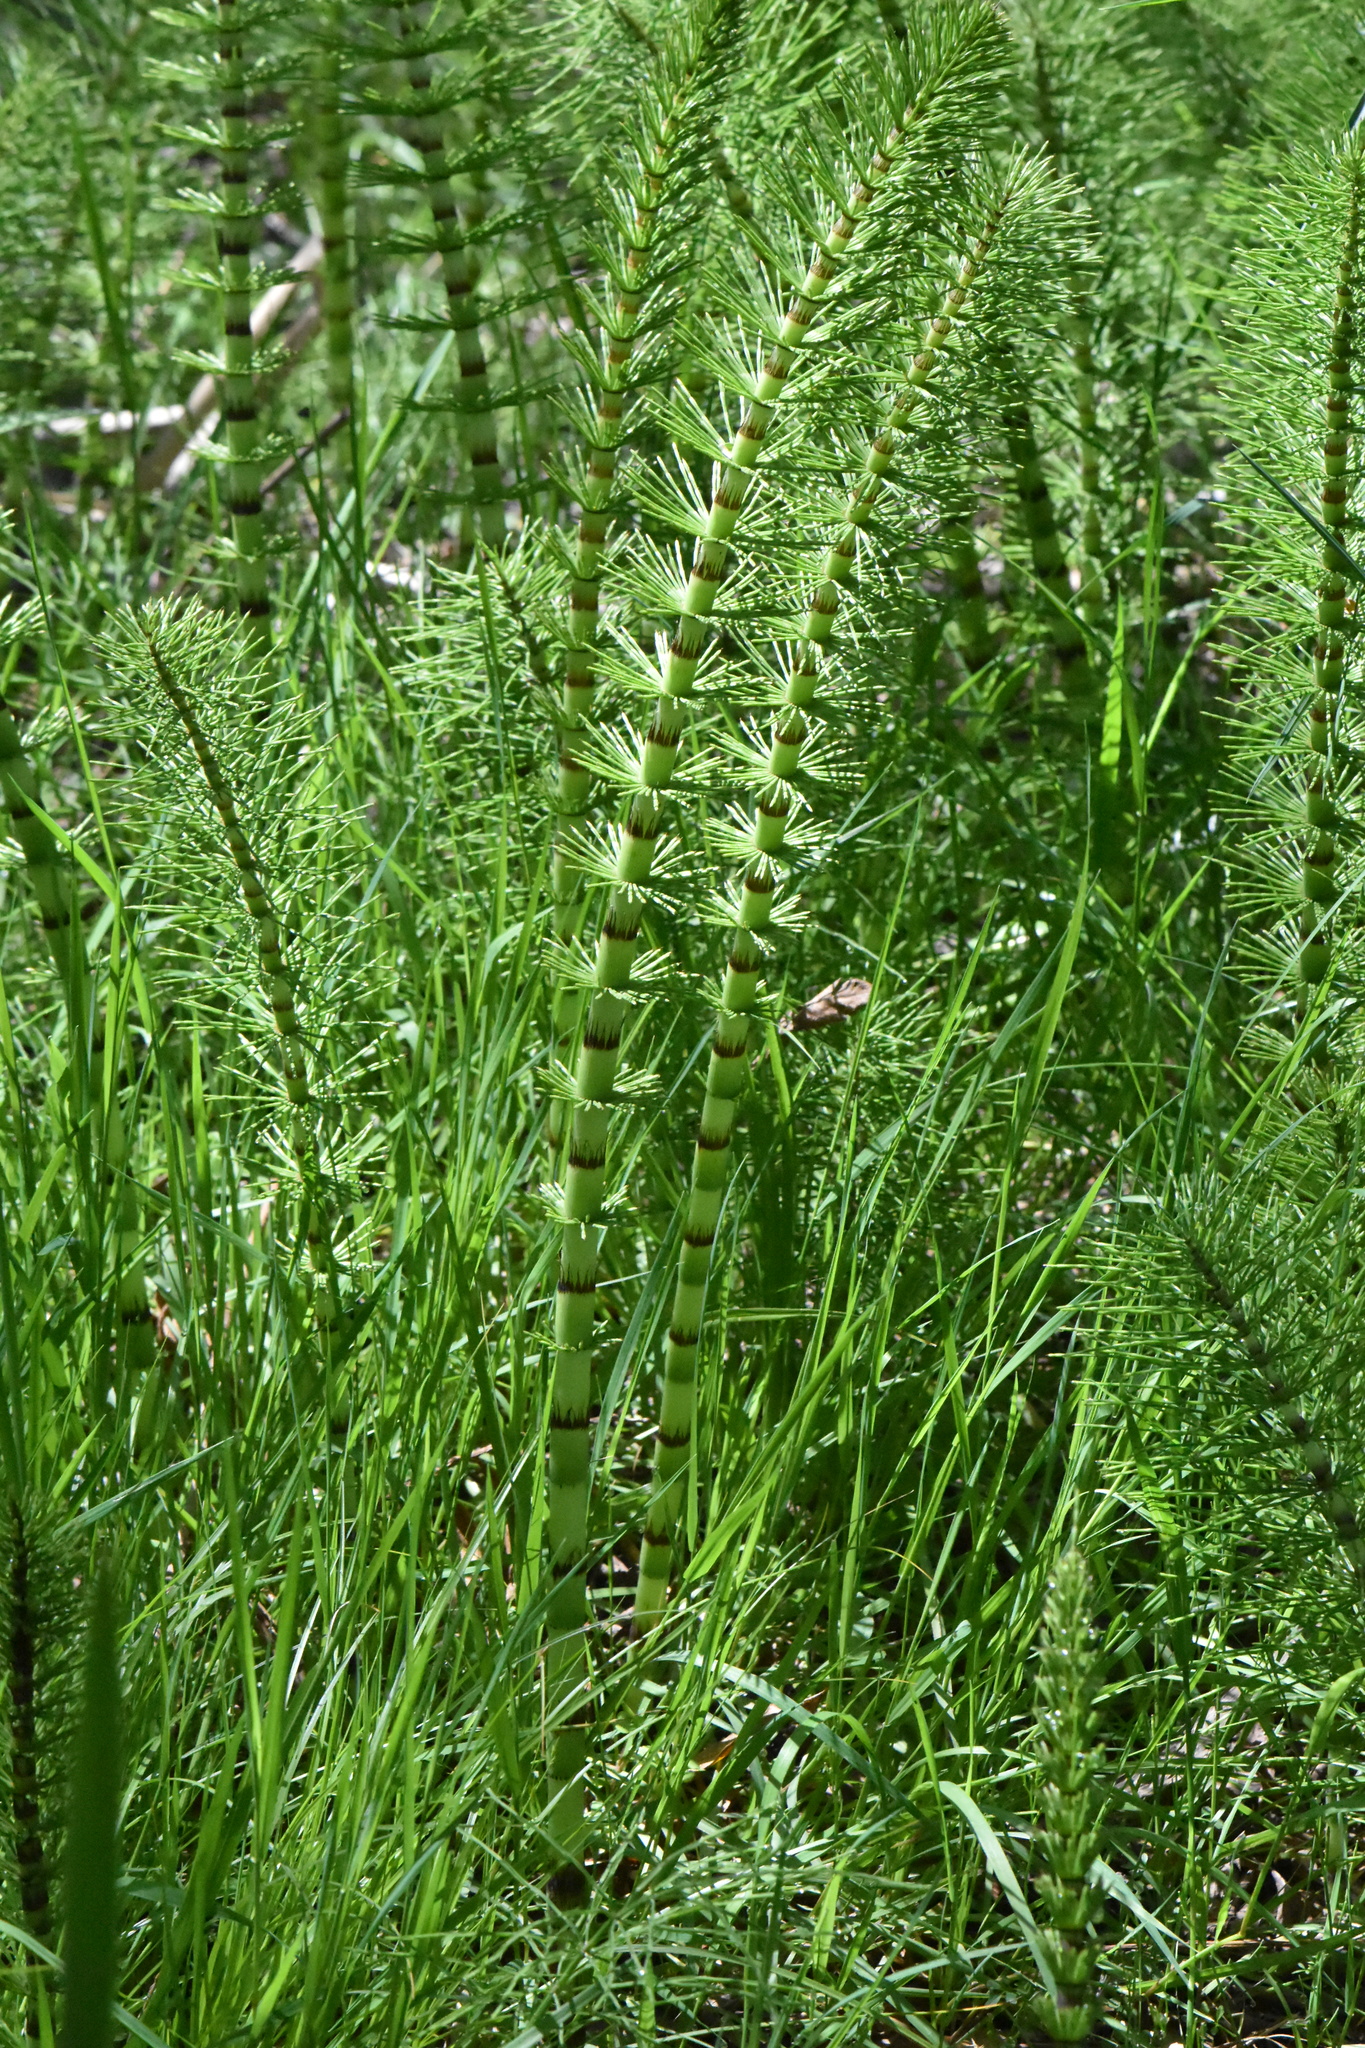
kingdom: Plantae
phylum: Tracheophyta
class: Polypodiopsida
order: Equisetales
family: Equisetaceae
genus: Equisetum
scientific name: Equisetum telmateia
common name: Great horsetail
